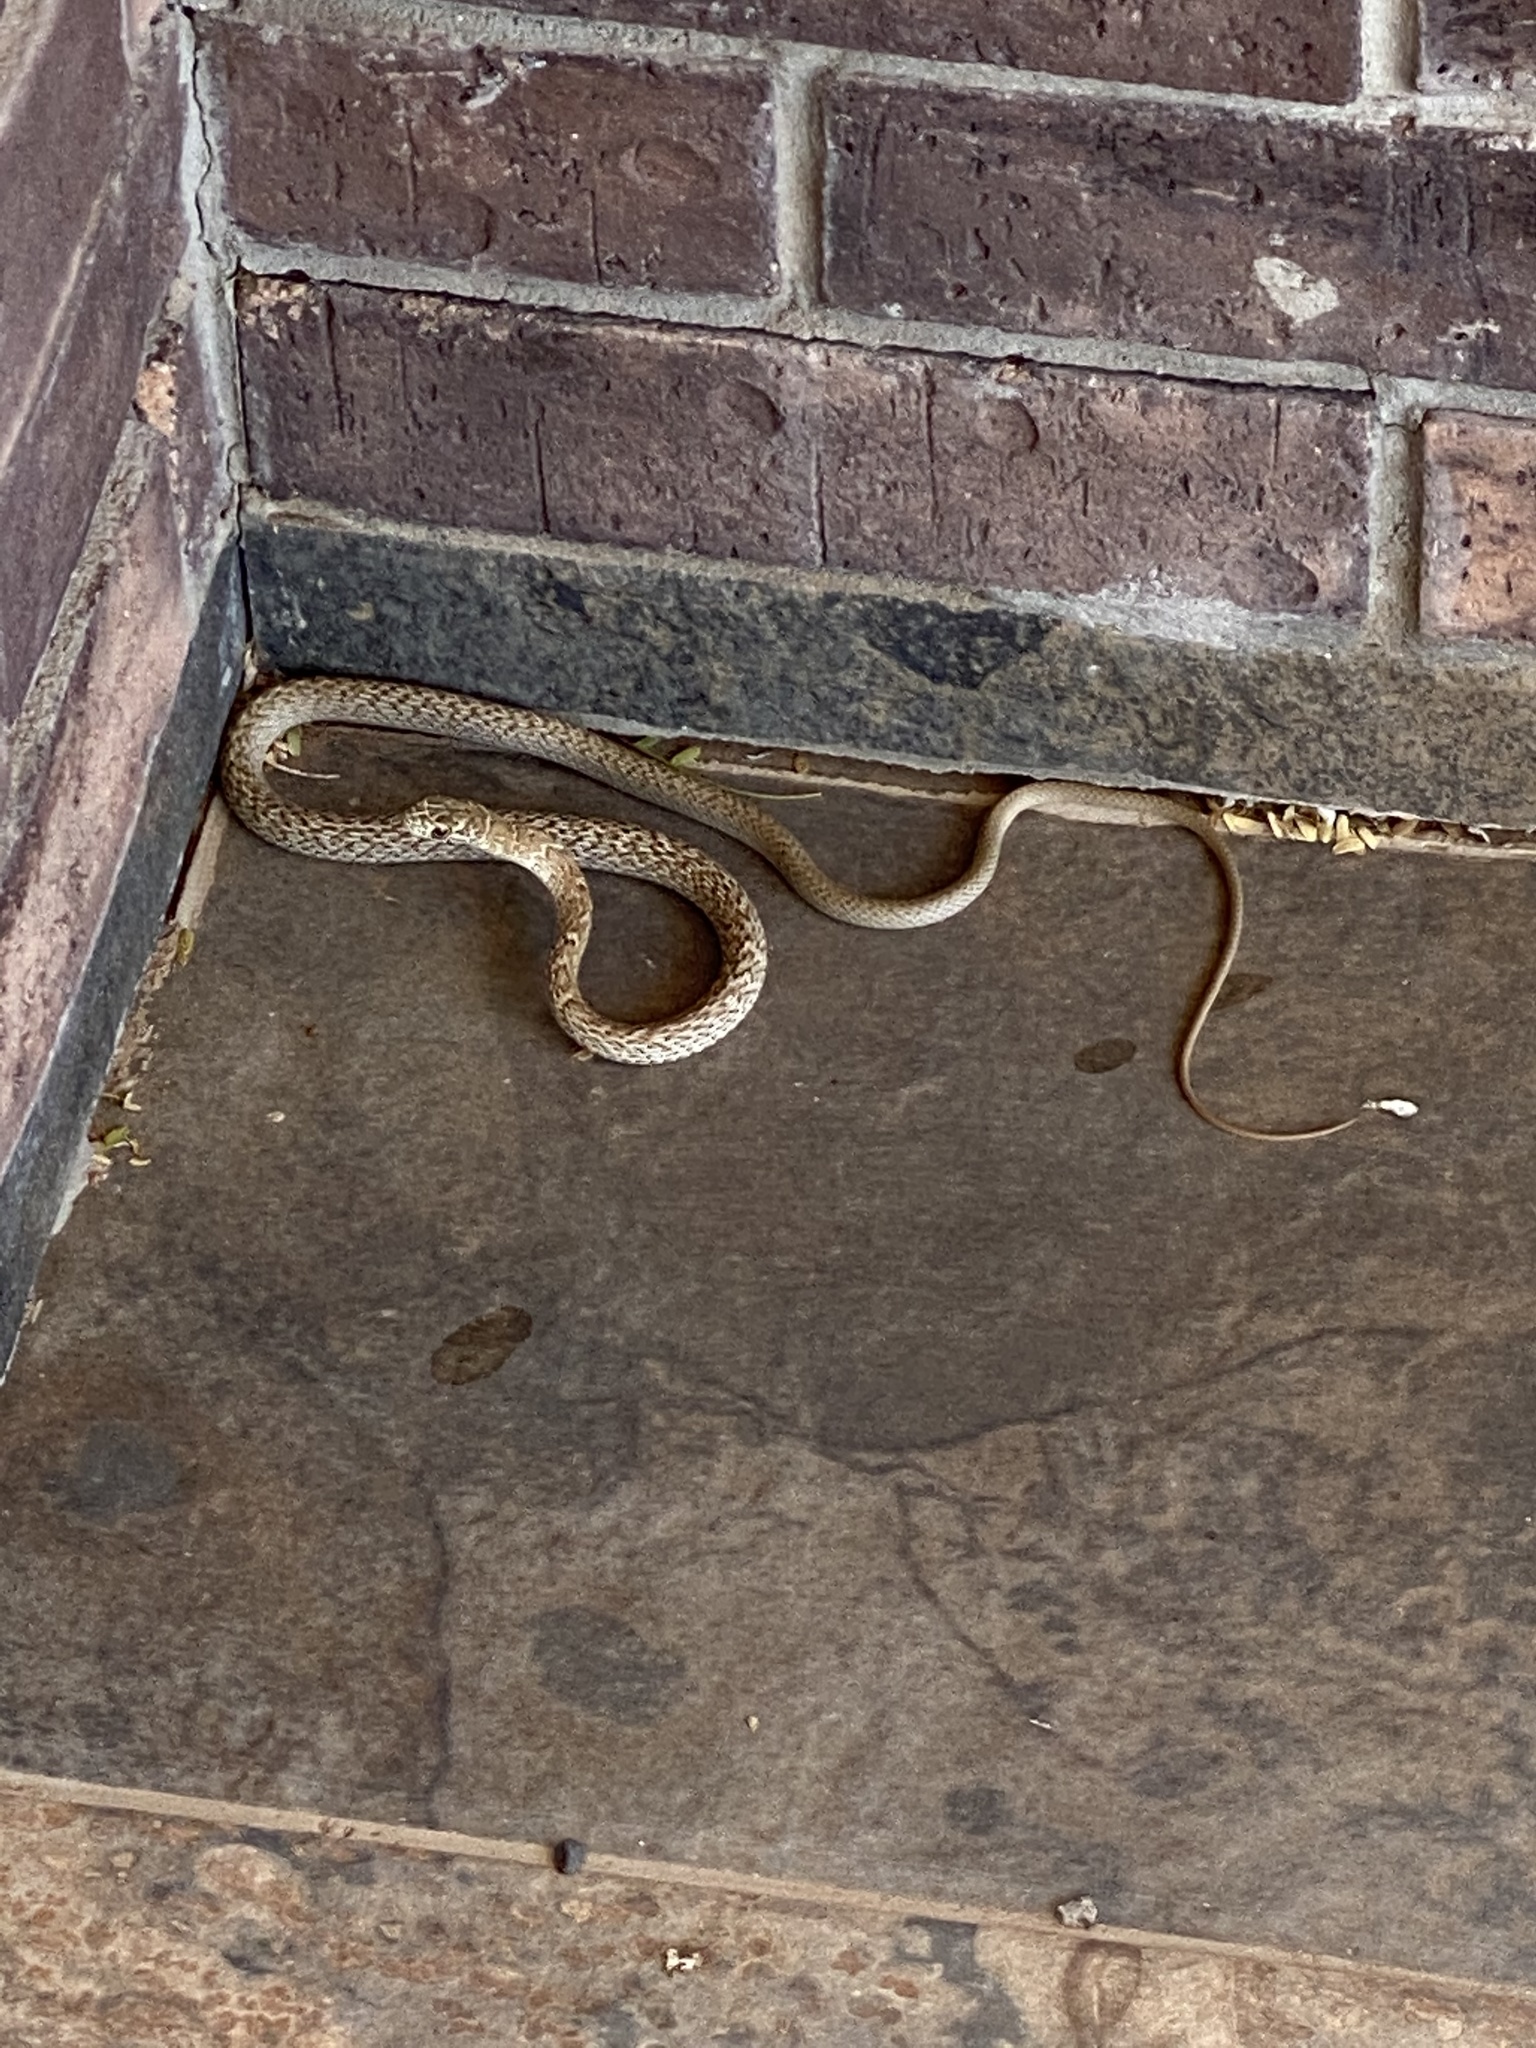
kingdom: Animalia
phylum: Chordata
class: Squamata
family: Colubridae
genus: Masticophis
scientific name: Masticophis flagellum
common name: Coachwhip
